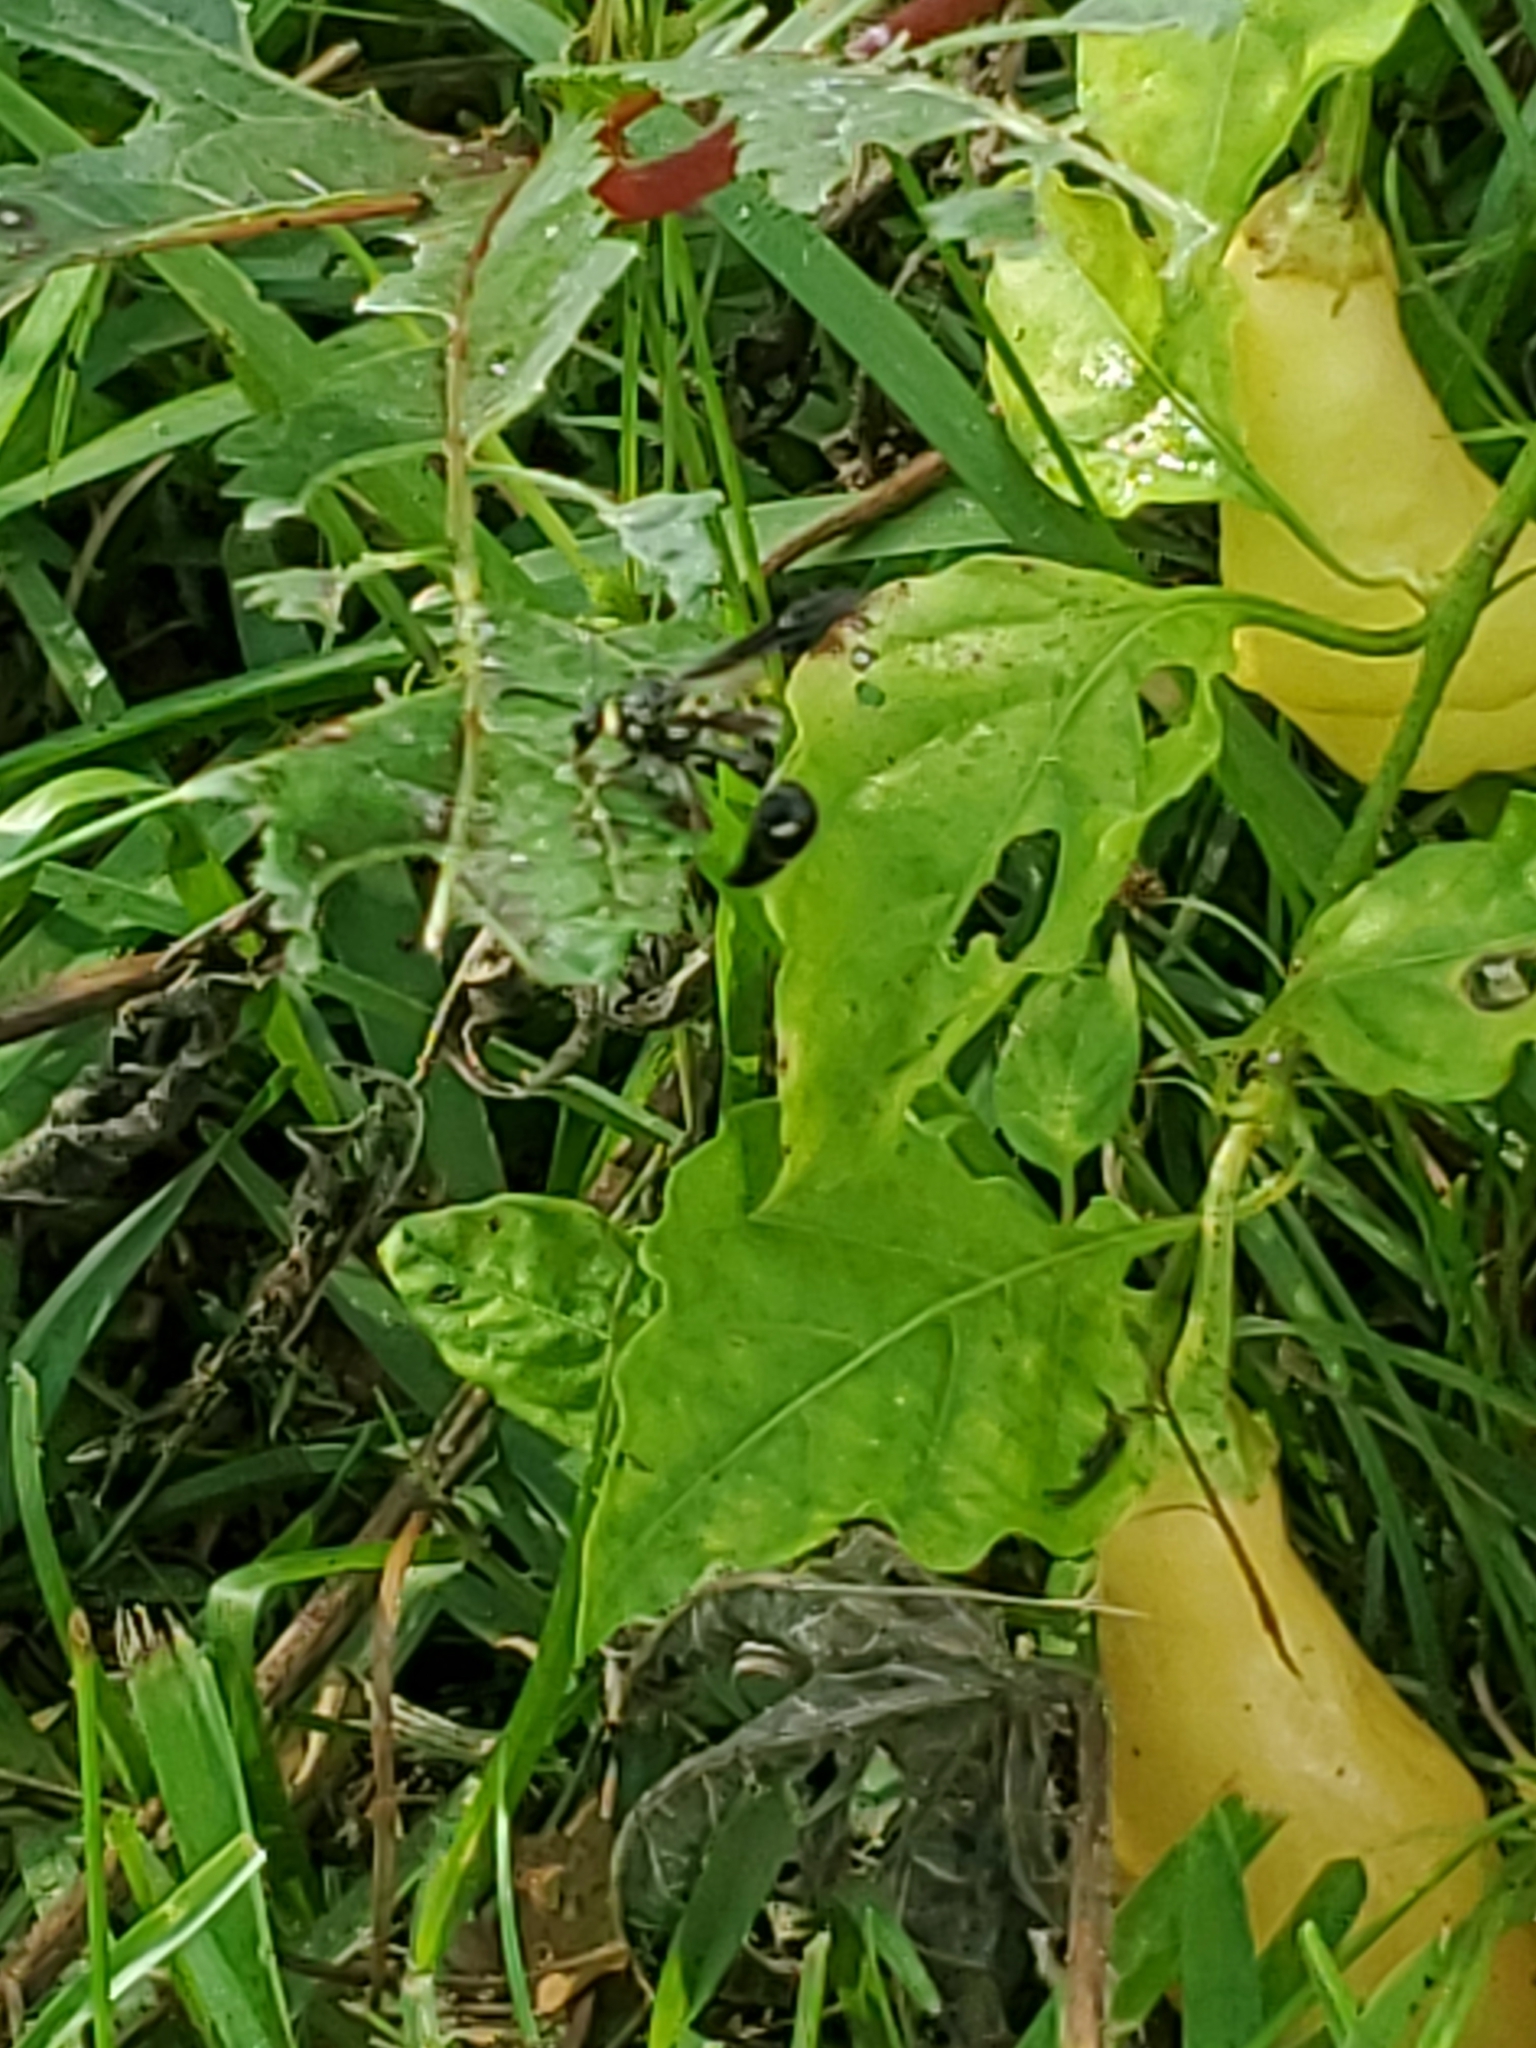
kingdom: Animalia
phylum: Arthropoda
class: Insecta
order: Hymenoptera
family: Vespidae
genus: Eumenes
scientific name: Eumenes fraternus
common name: Fraternal potter wasp
